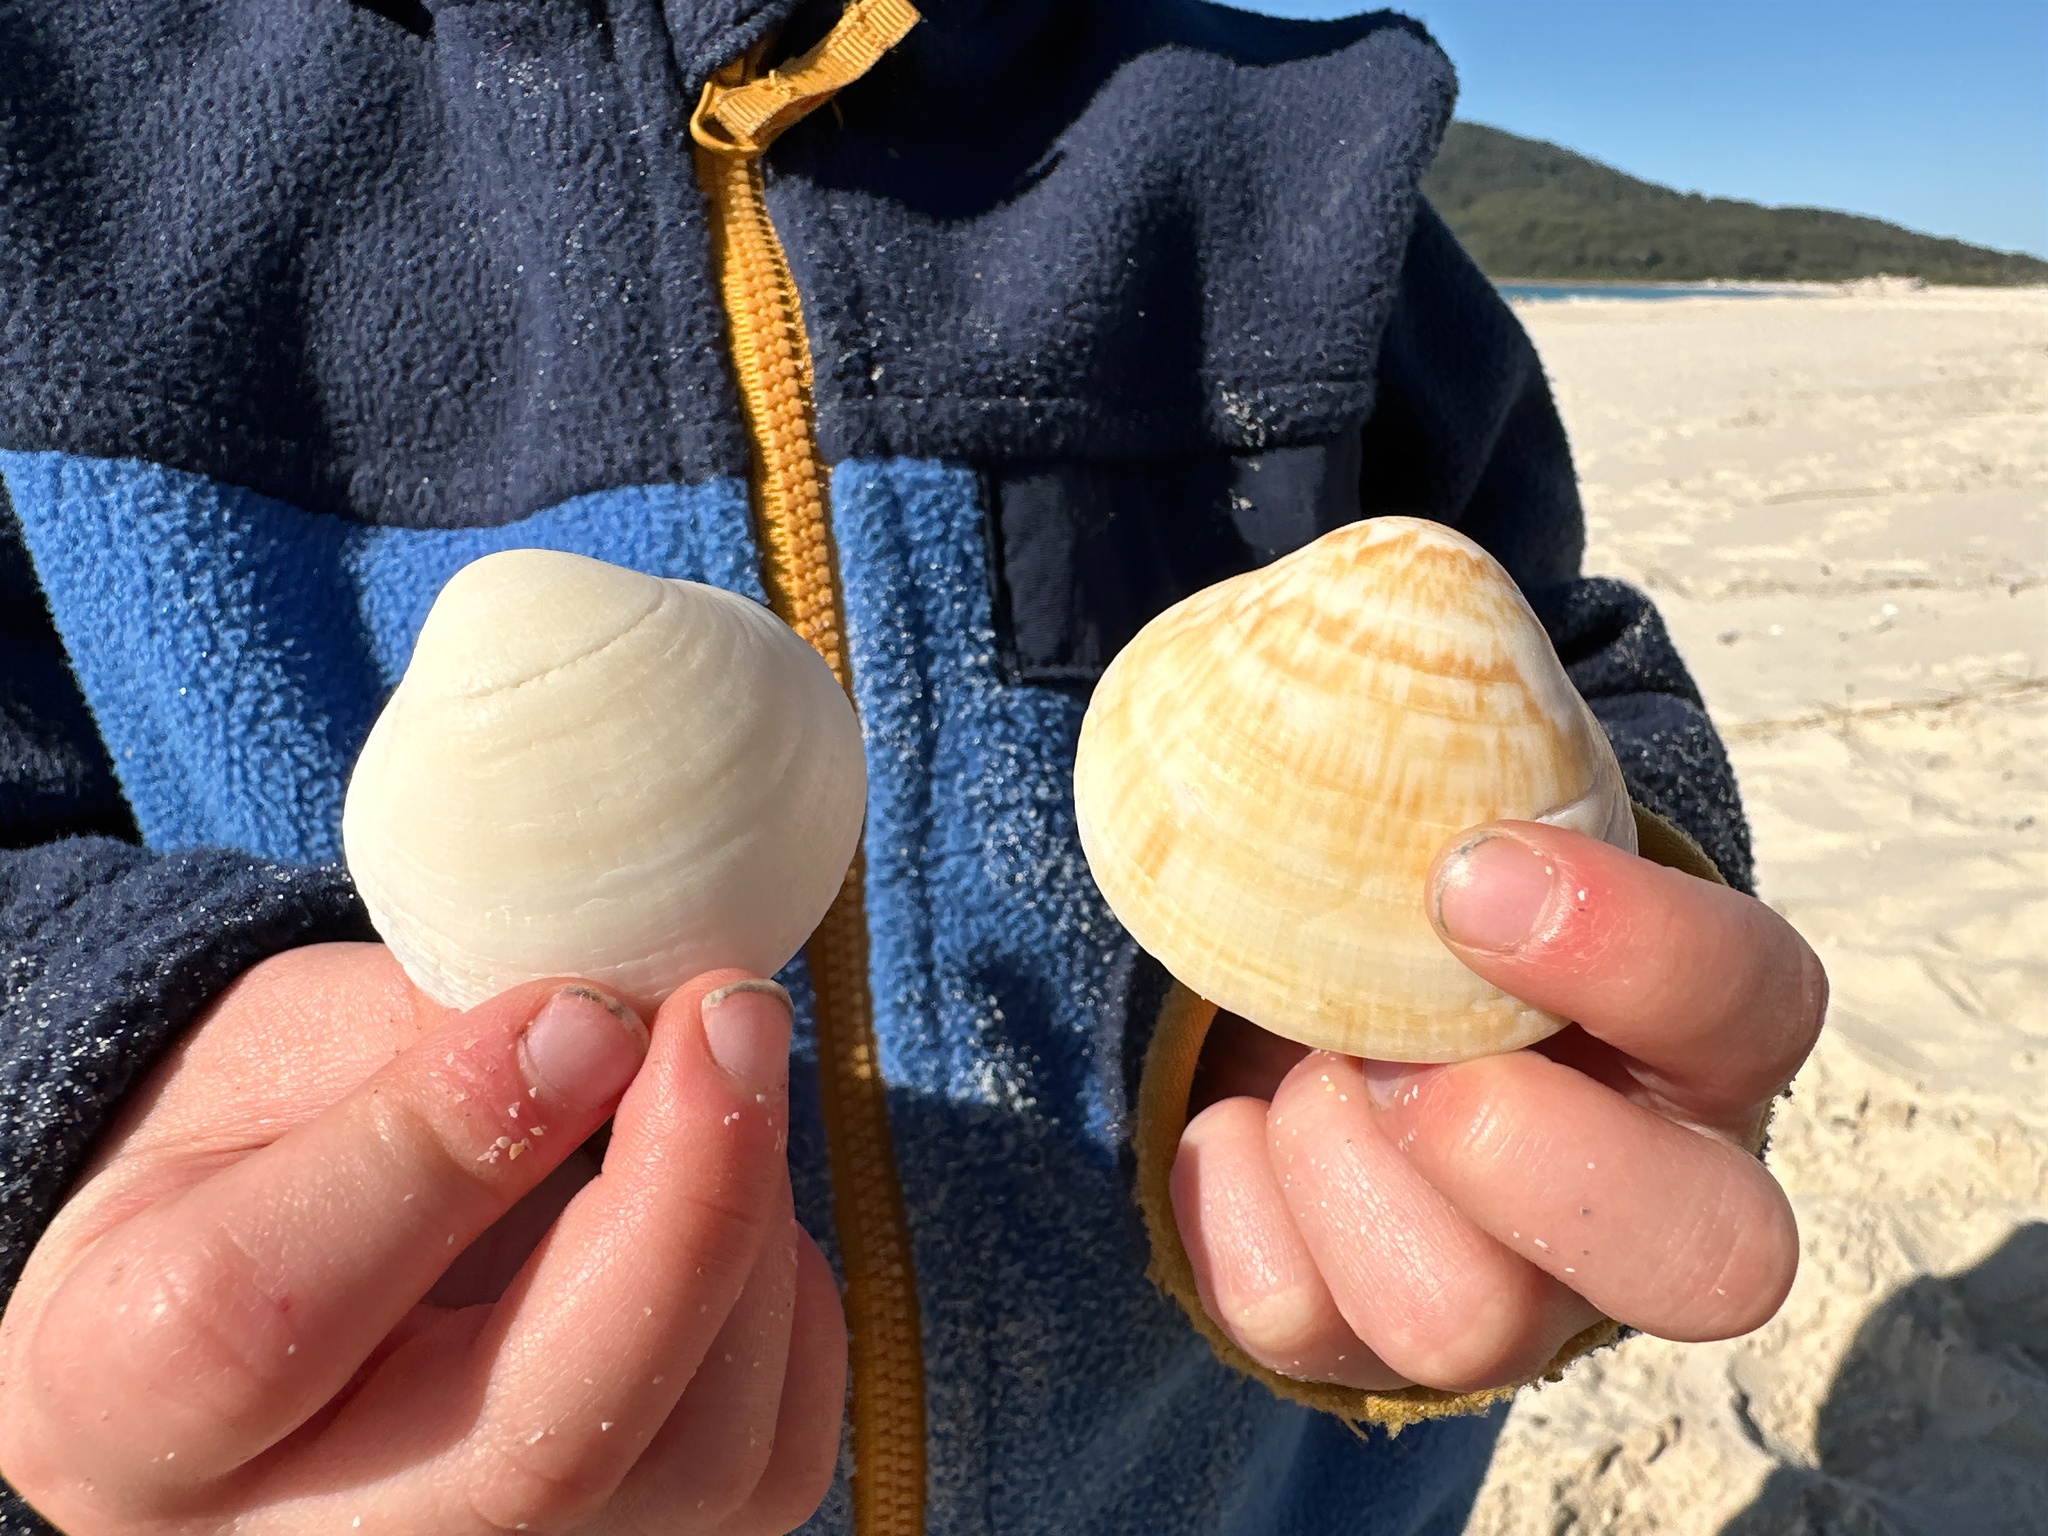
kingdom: Animalia
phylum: Mollusca
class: Bivalvia
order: Arcida
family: Glycymerididae
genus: Glycymeris
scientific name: Glycymeris grayana
